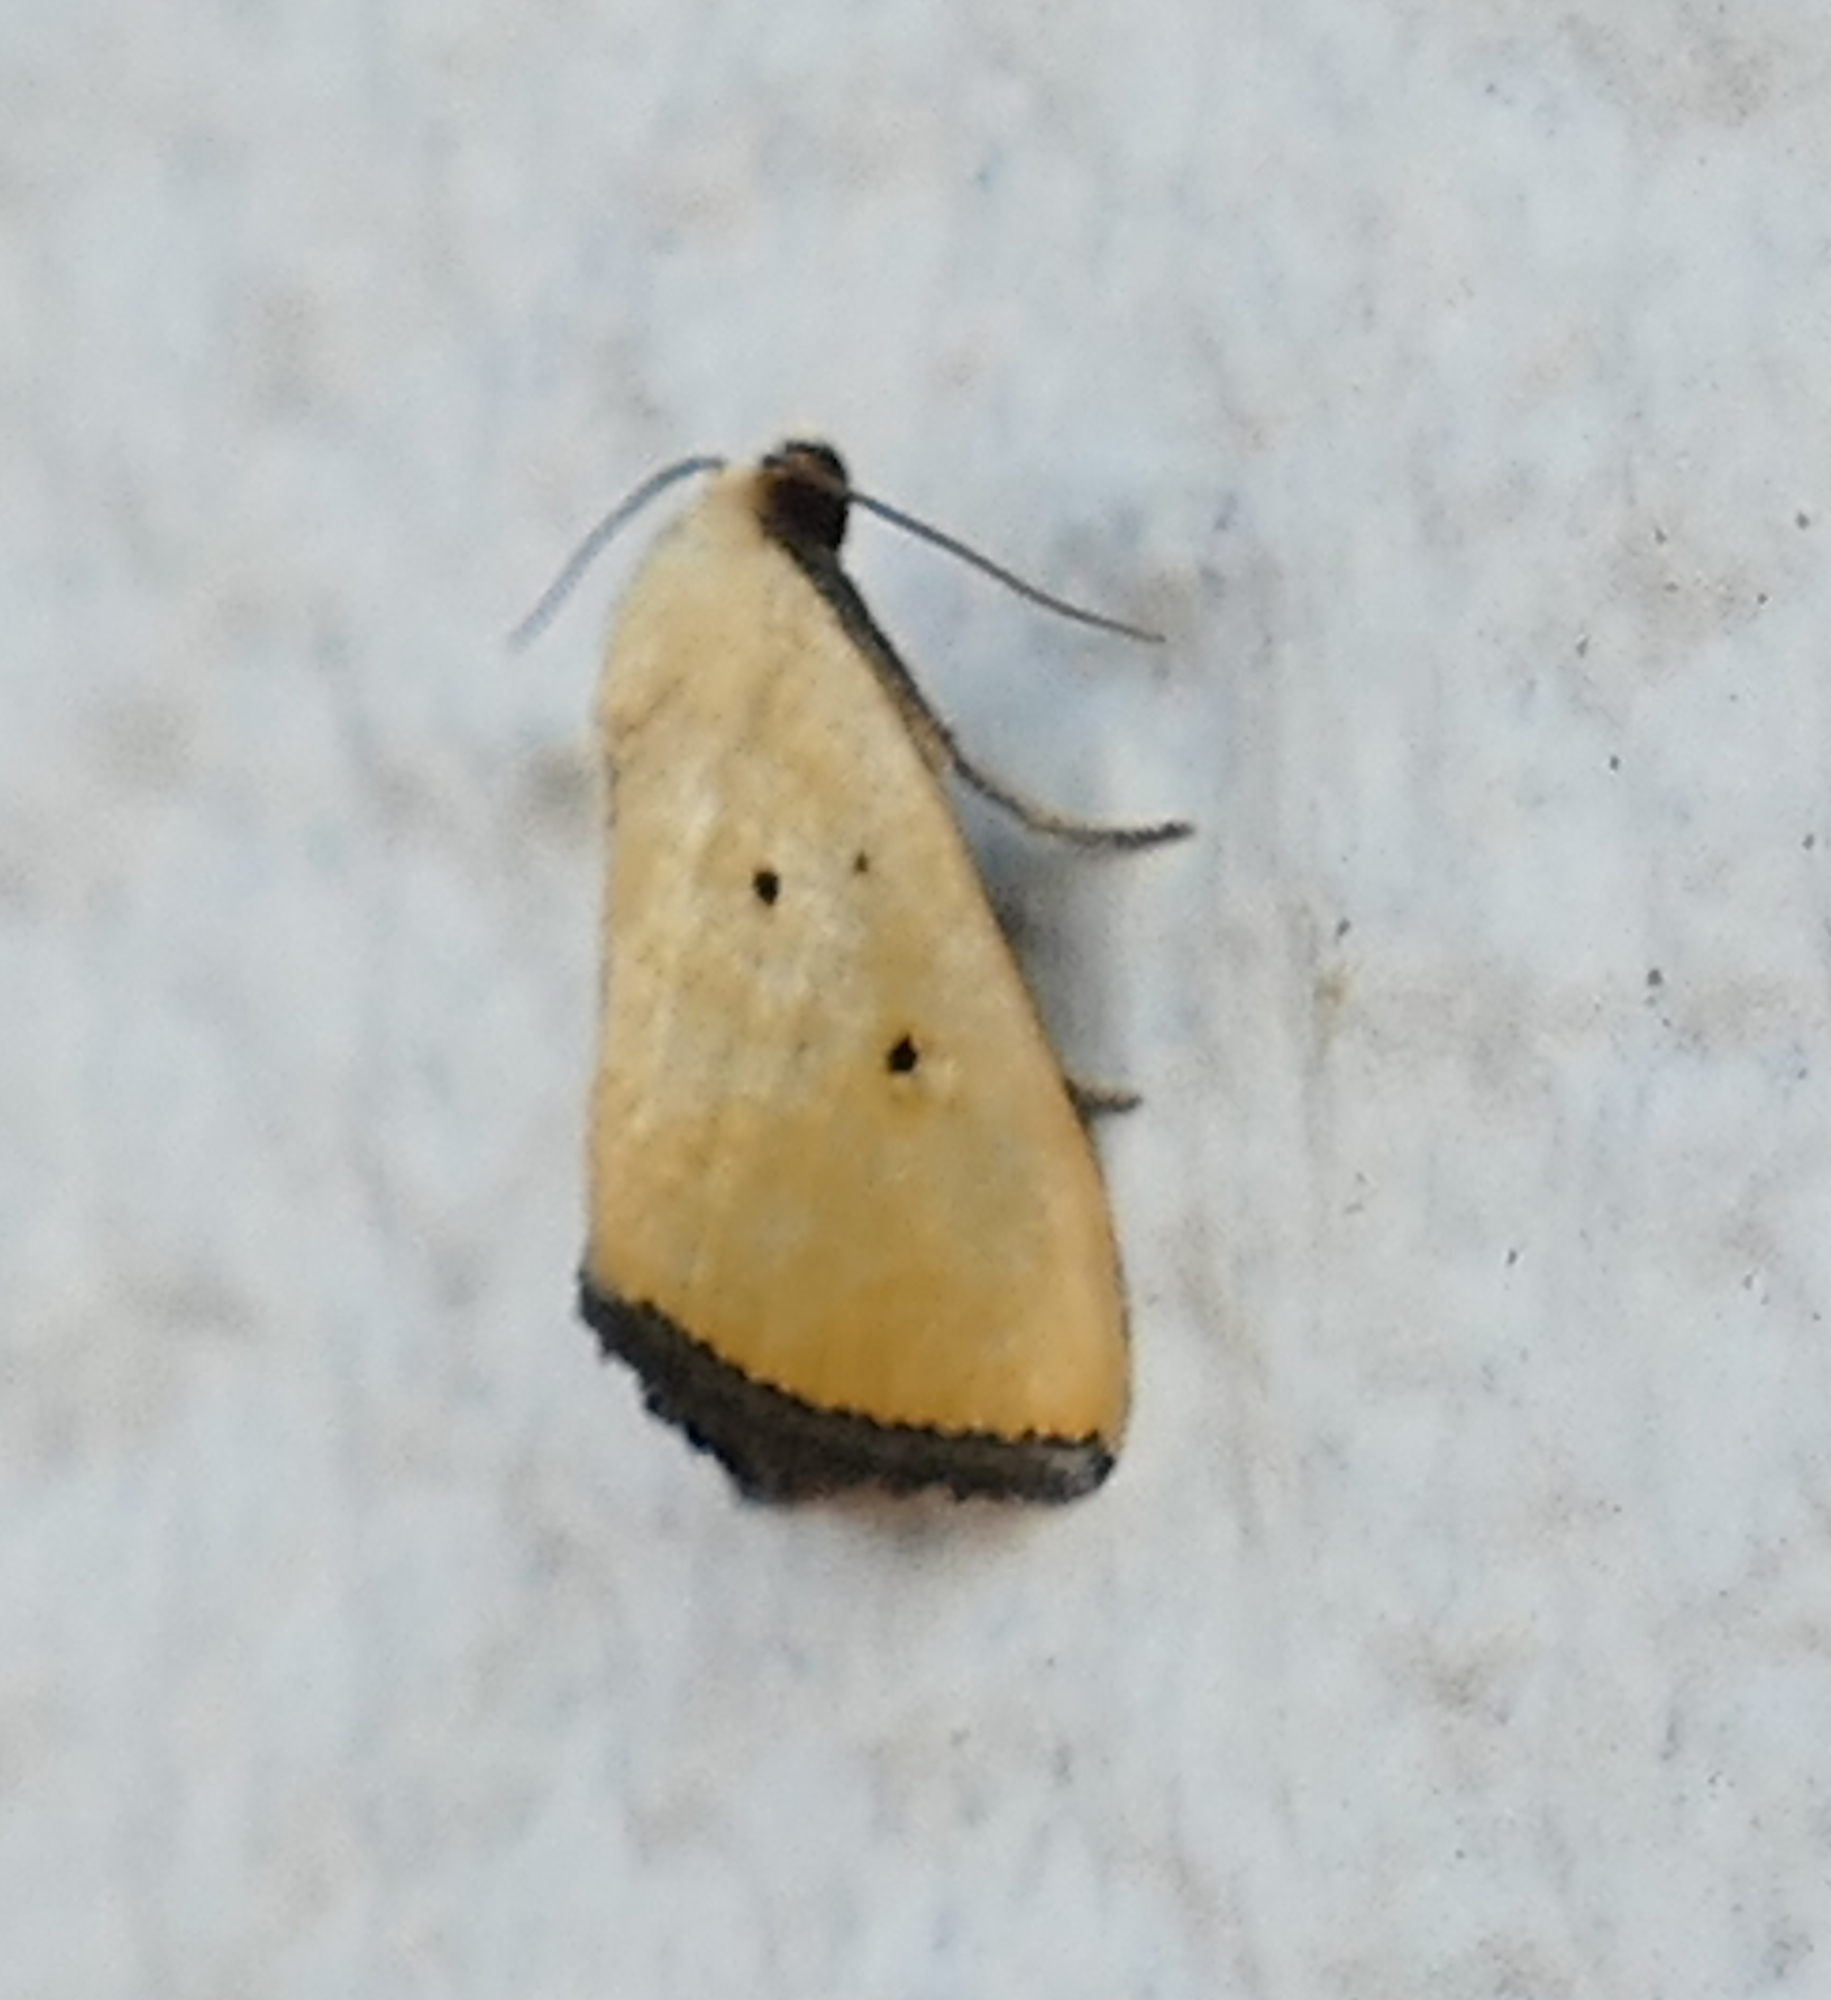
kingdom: Animalia
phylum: Arthropoda
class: Insecta
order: Lepidoptera
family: Noctuidae
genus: Marimatha
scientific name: Marimatha nigrofimbria
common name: Black-bordered lemon moth
